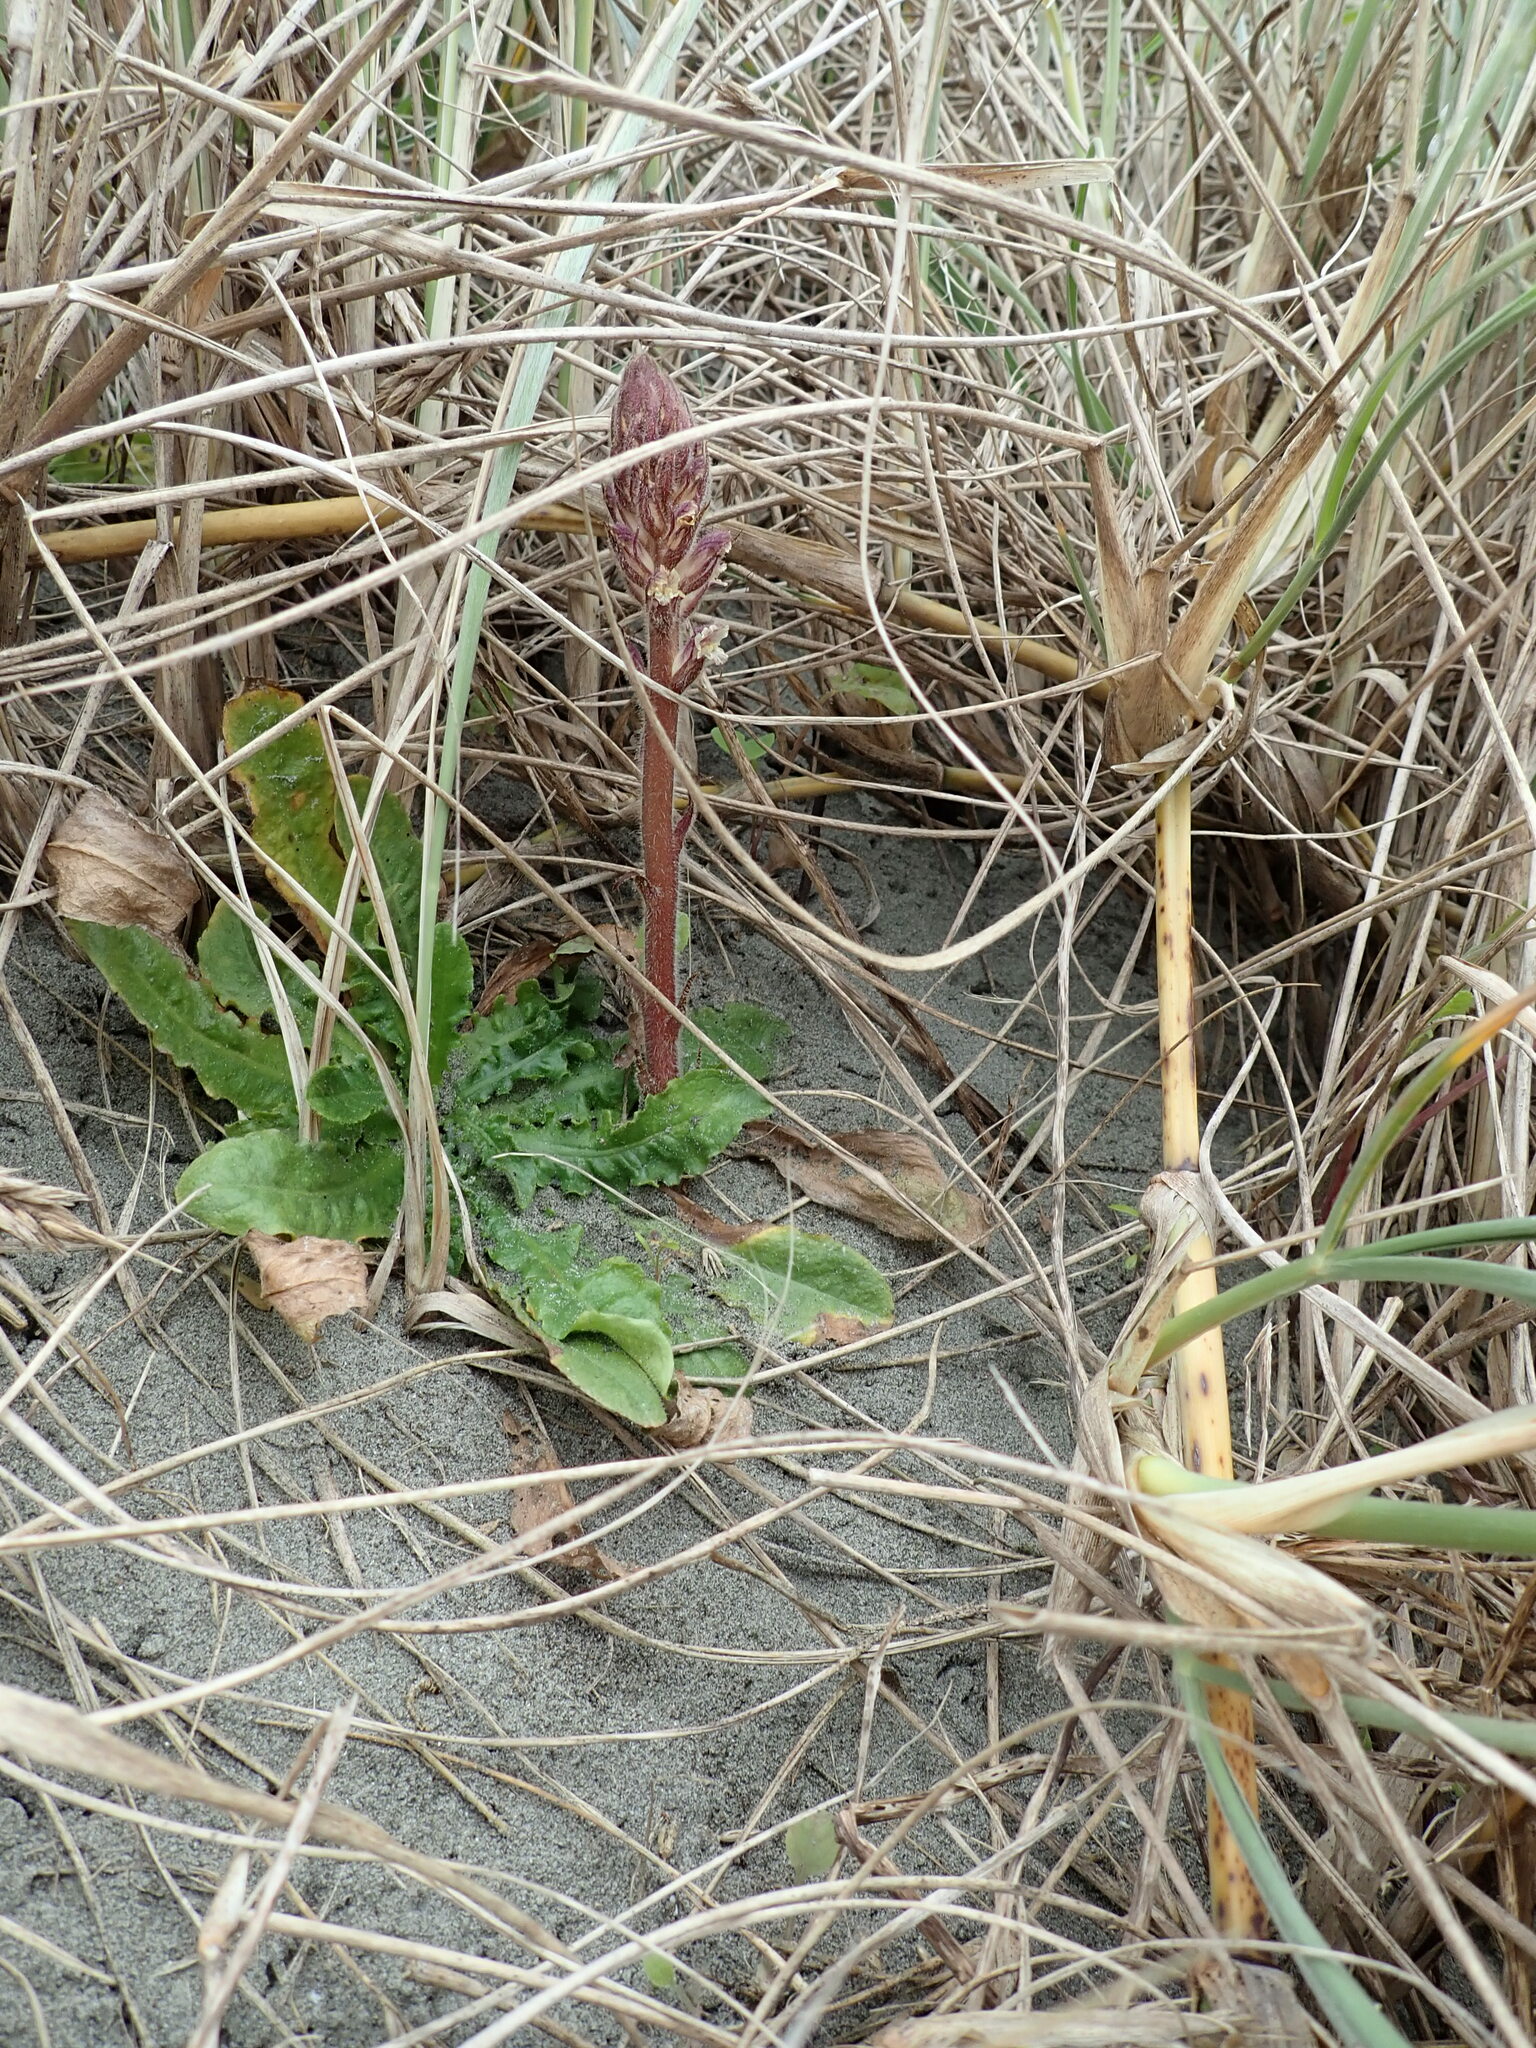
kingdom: Plantae
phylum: Tracheophyta
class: Magnoliopsida
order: Lamiales
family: Orobanchaceae
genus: Orobanche
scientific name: Orobanche minor
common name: Common broomrape
